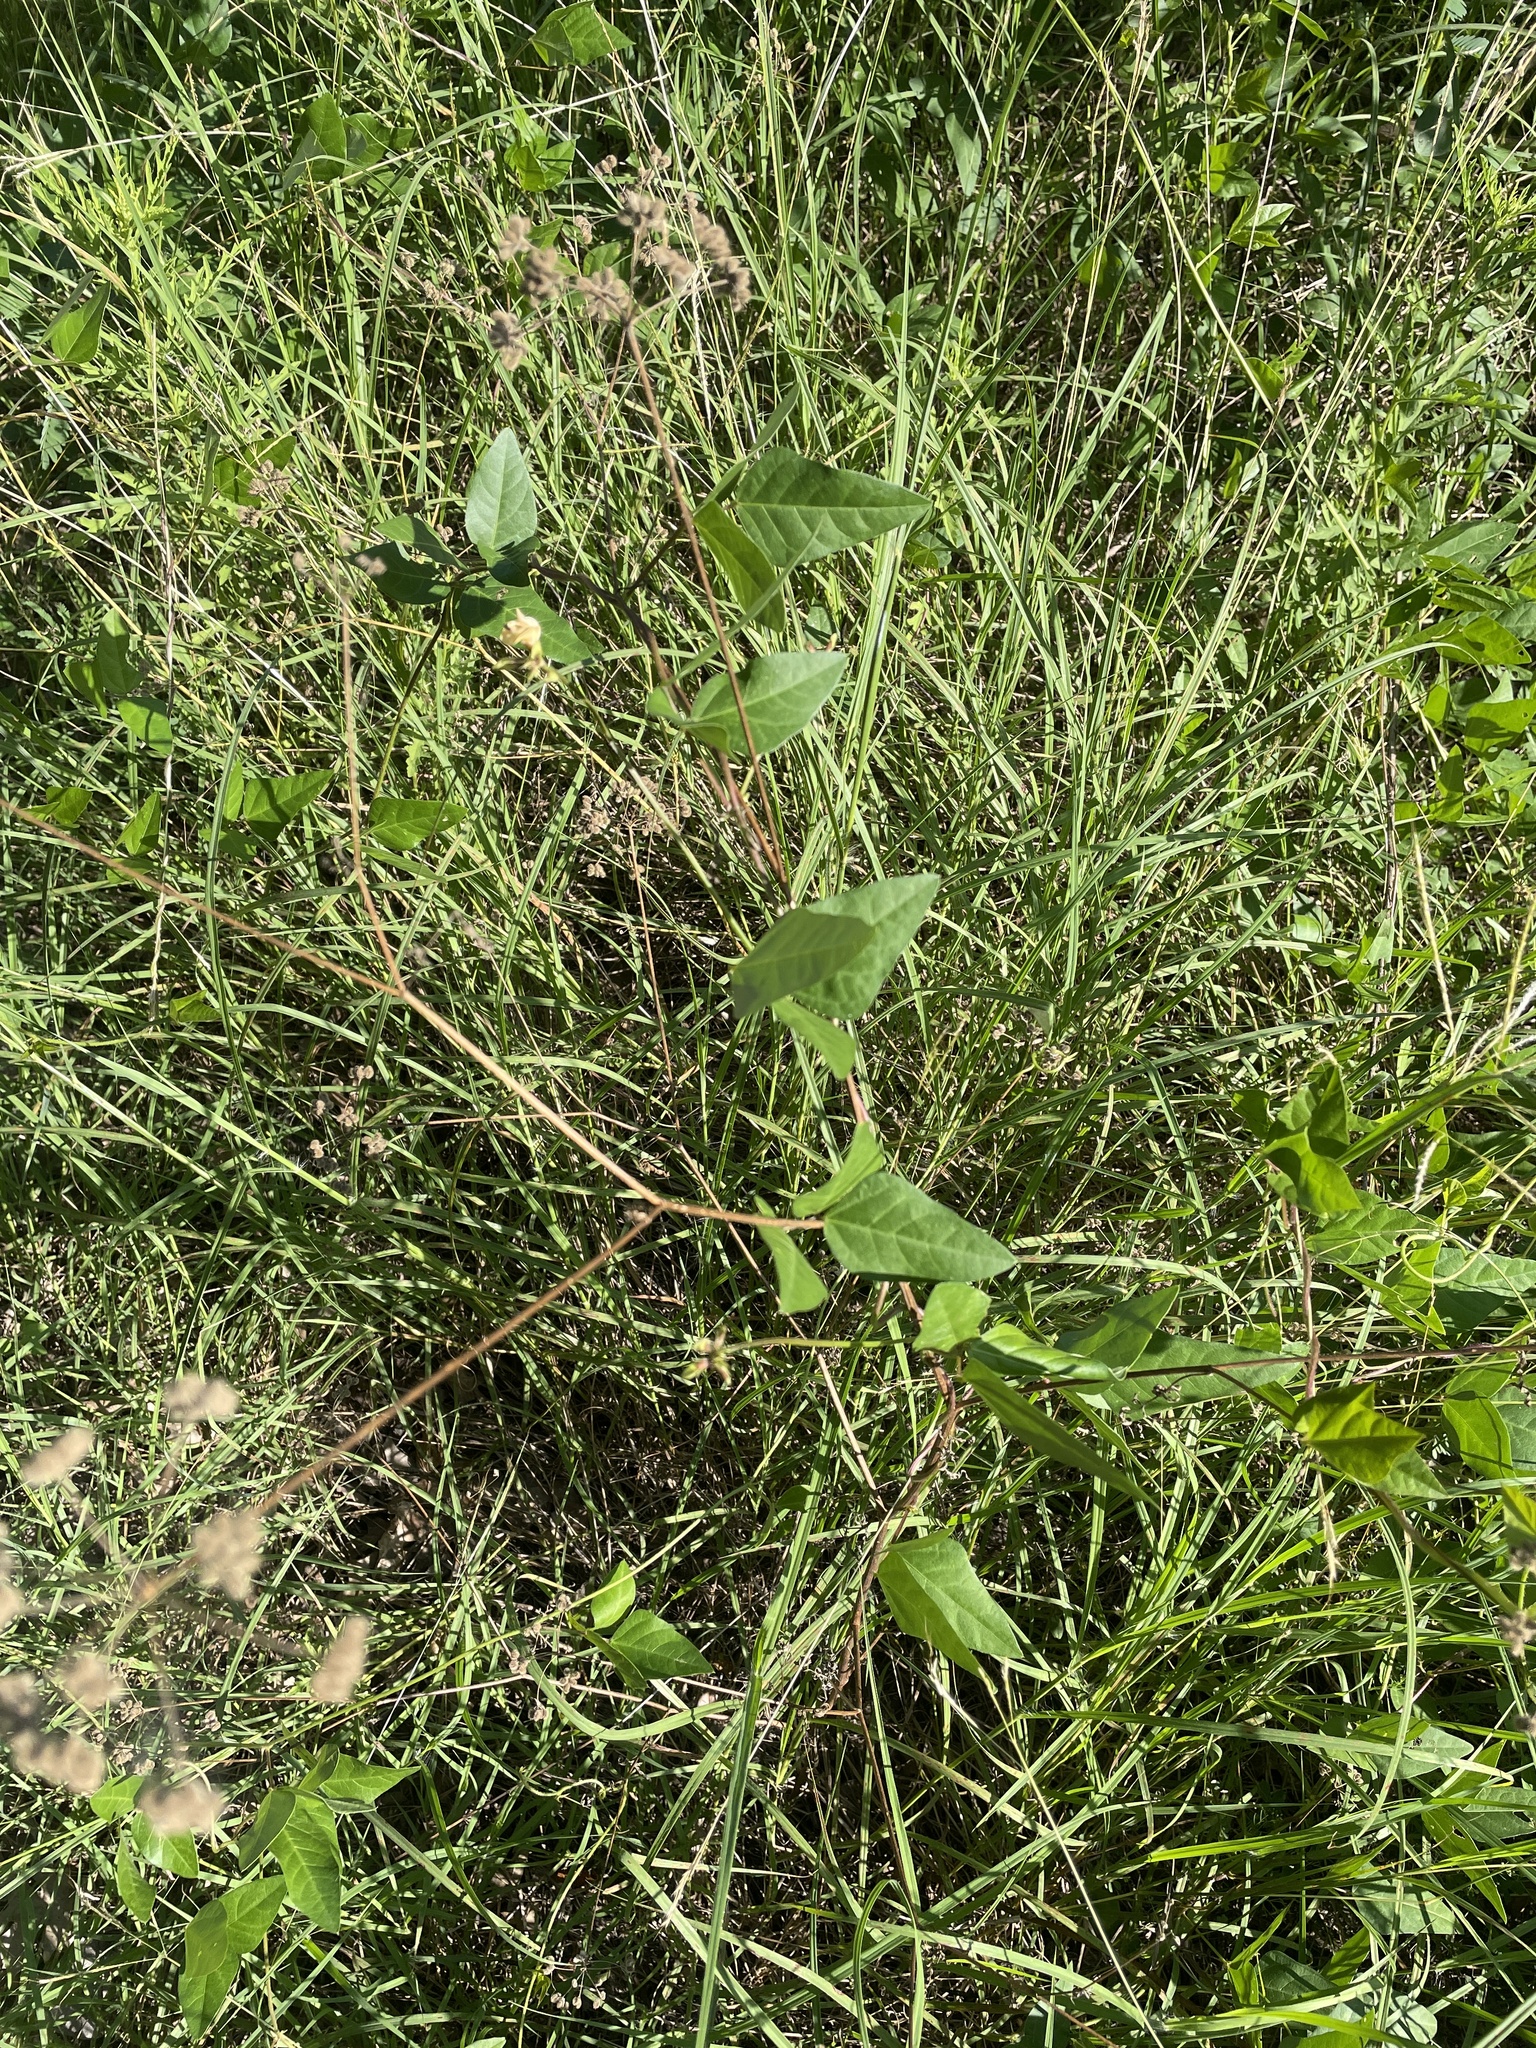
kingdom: Plantae
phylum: Tracheophyta
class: Magnoliopsida
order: Fabales
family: Fabaceae
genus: Strophostyles
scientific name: Strophostyles helvola
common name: Trailing wild bean
